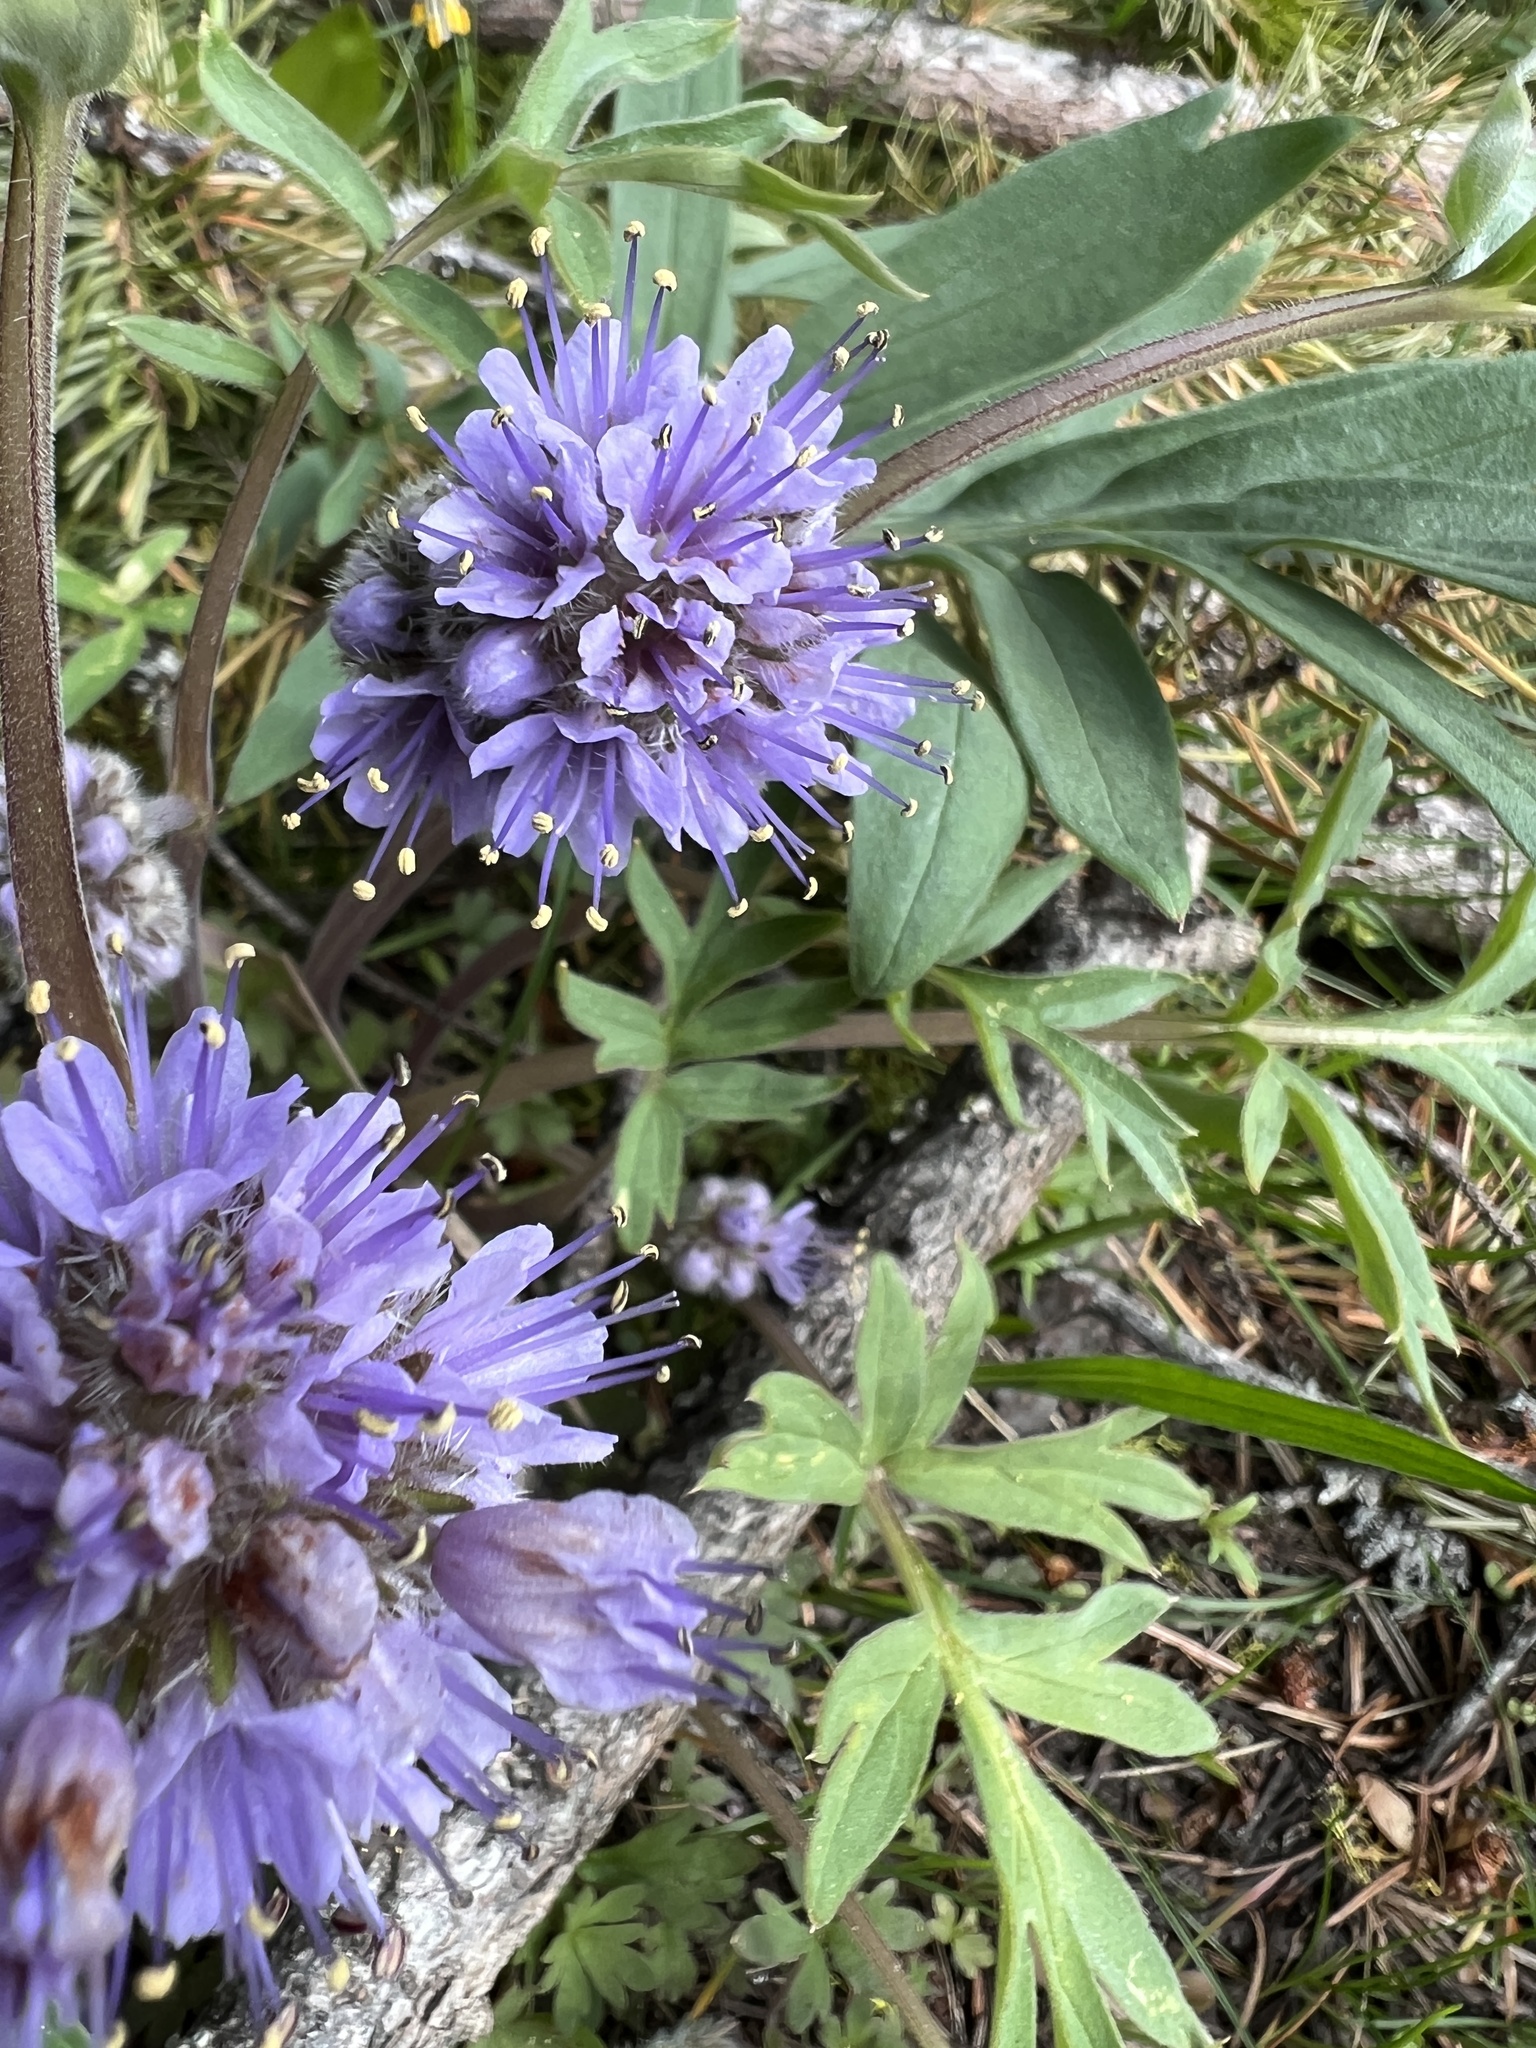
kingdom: Plantae
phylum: Tracheophyta
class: Magnoliopsida
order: Boraginales
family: Hydrophyllaceae
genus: Hydrophyllum
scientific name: Hydrophyllum capitatum
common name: Woollen-breeches
